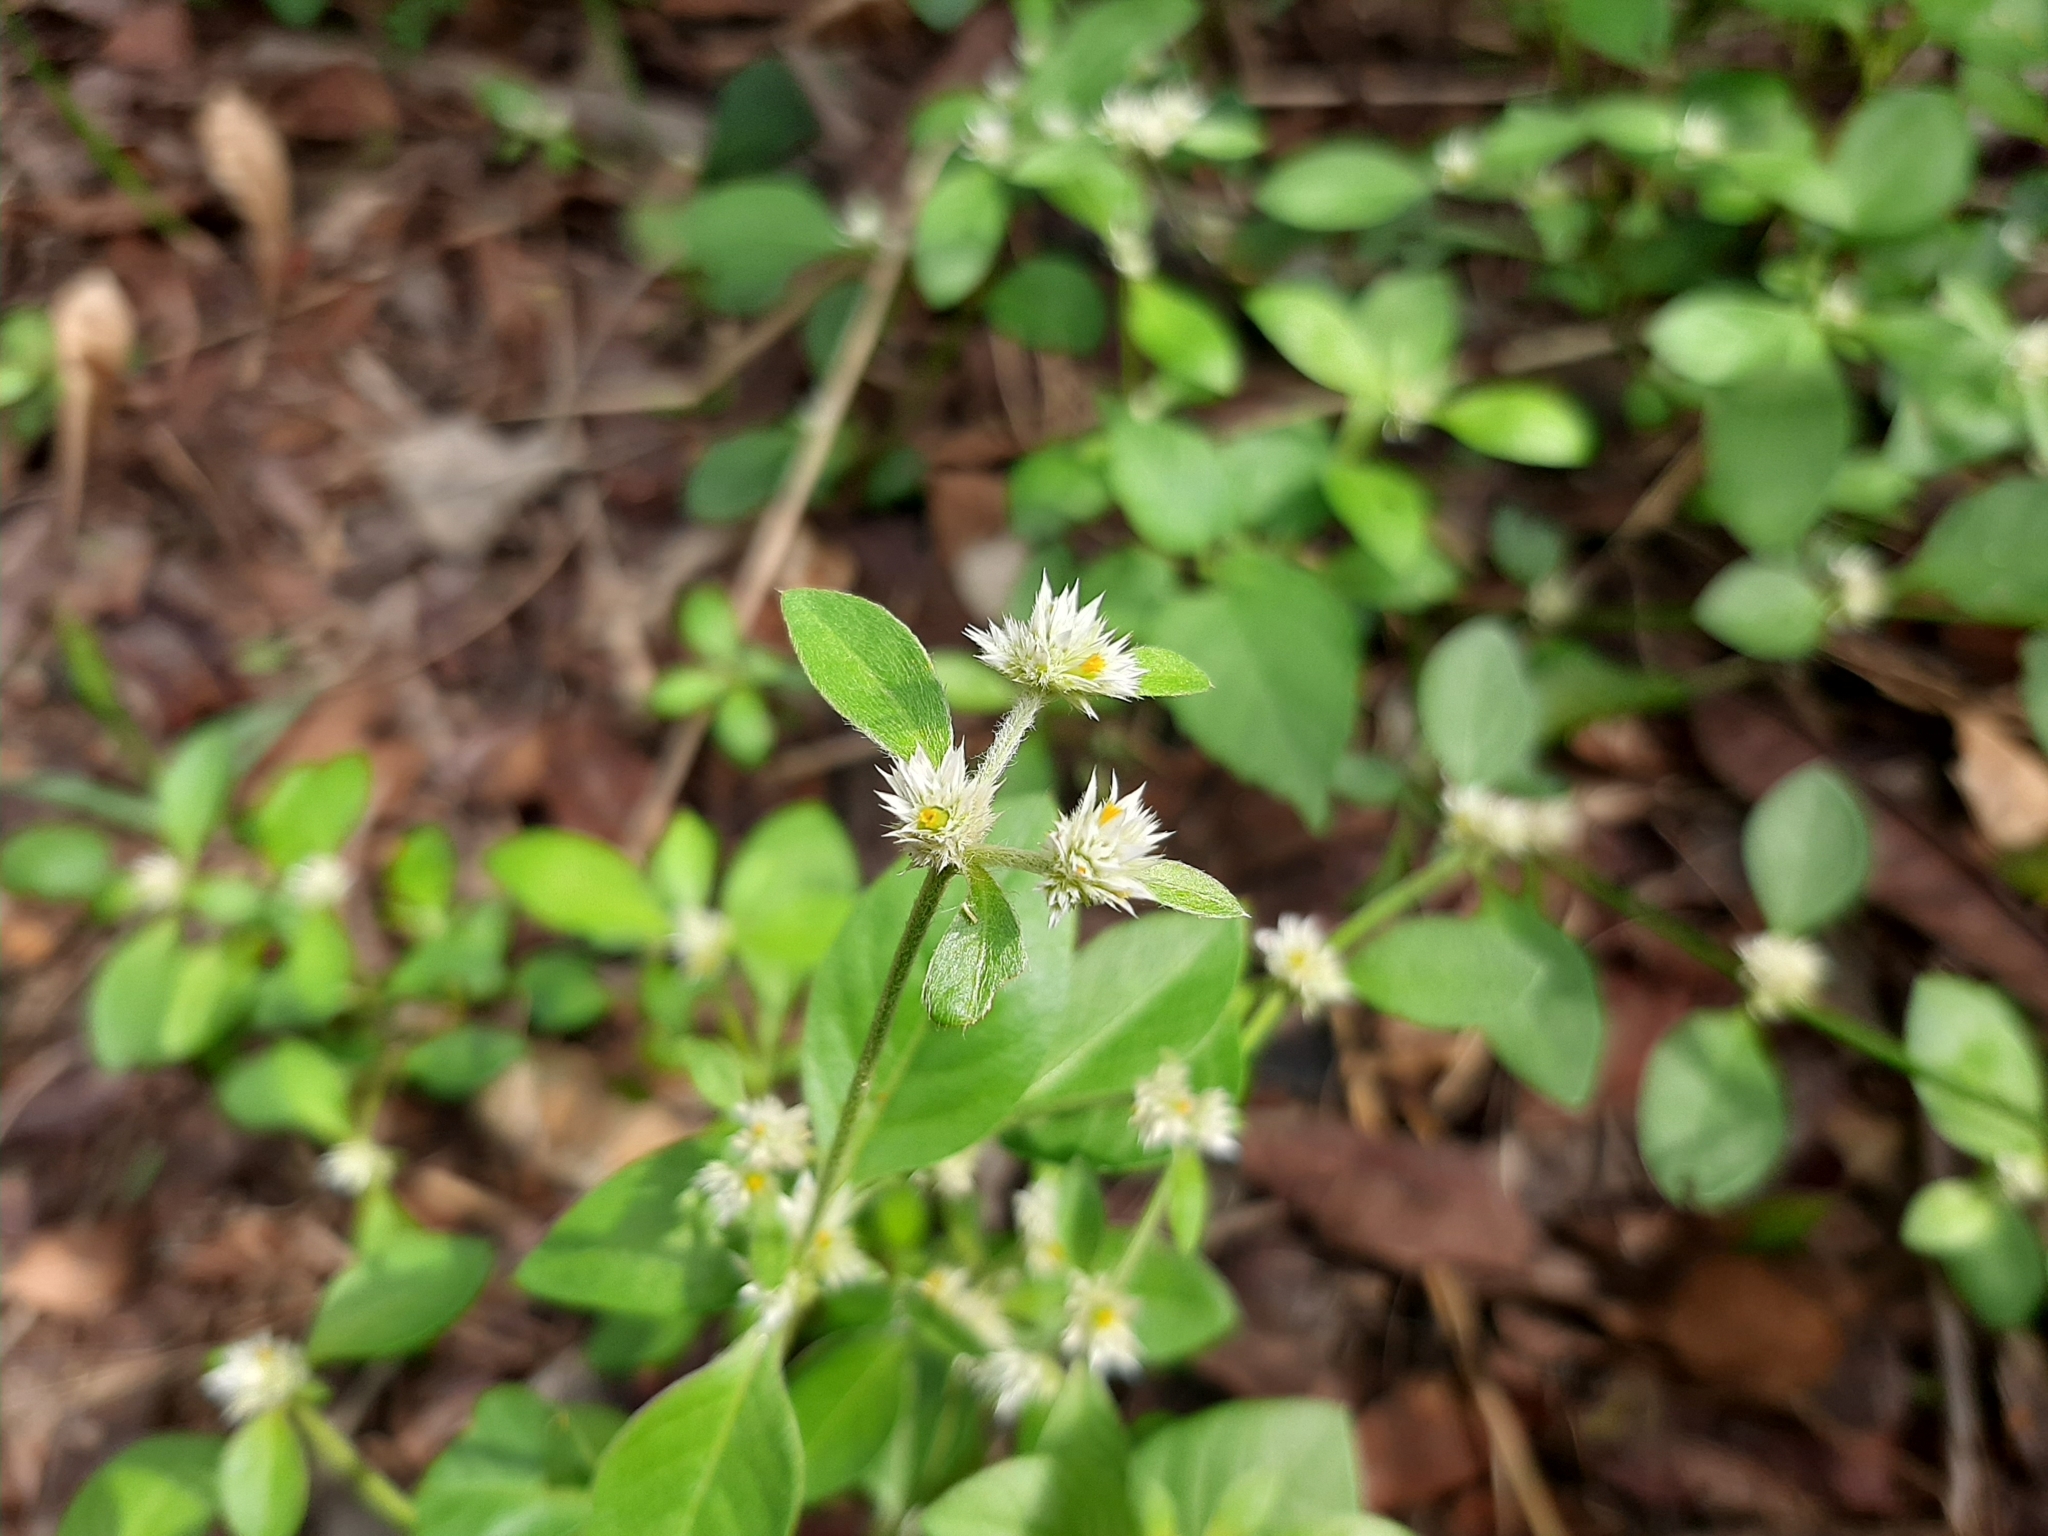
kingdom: Plantae
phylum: Tracheophyta
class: Magnoliopsida
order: Caryophyllales
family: Amaranthaceae
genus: Alternanthera
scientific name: Alternanthera bettzickiana
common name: Calico-plant
